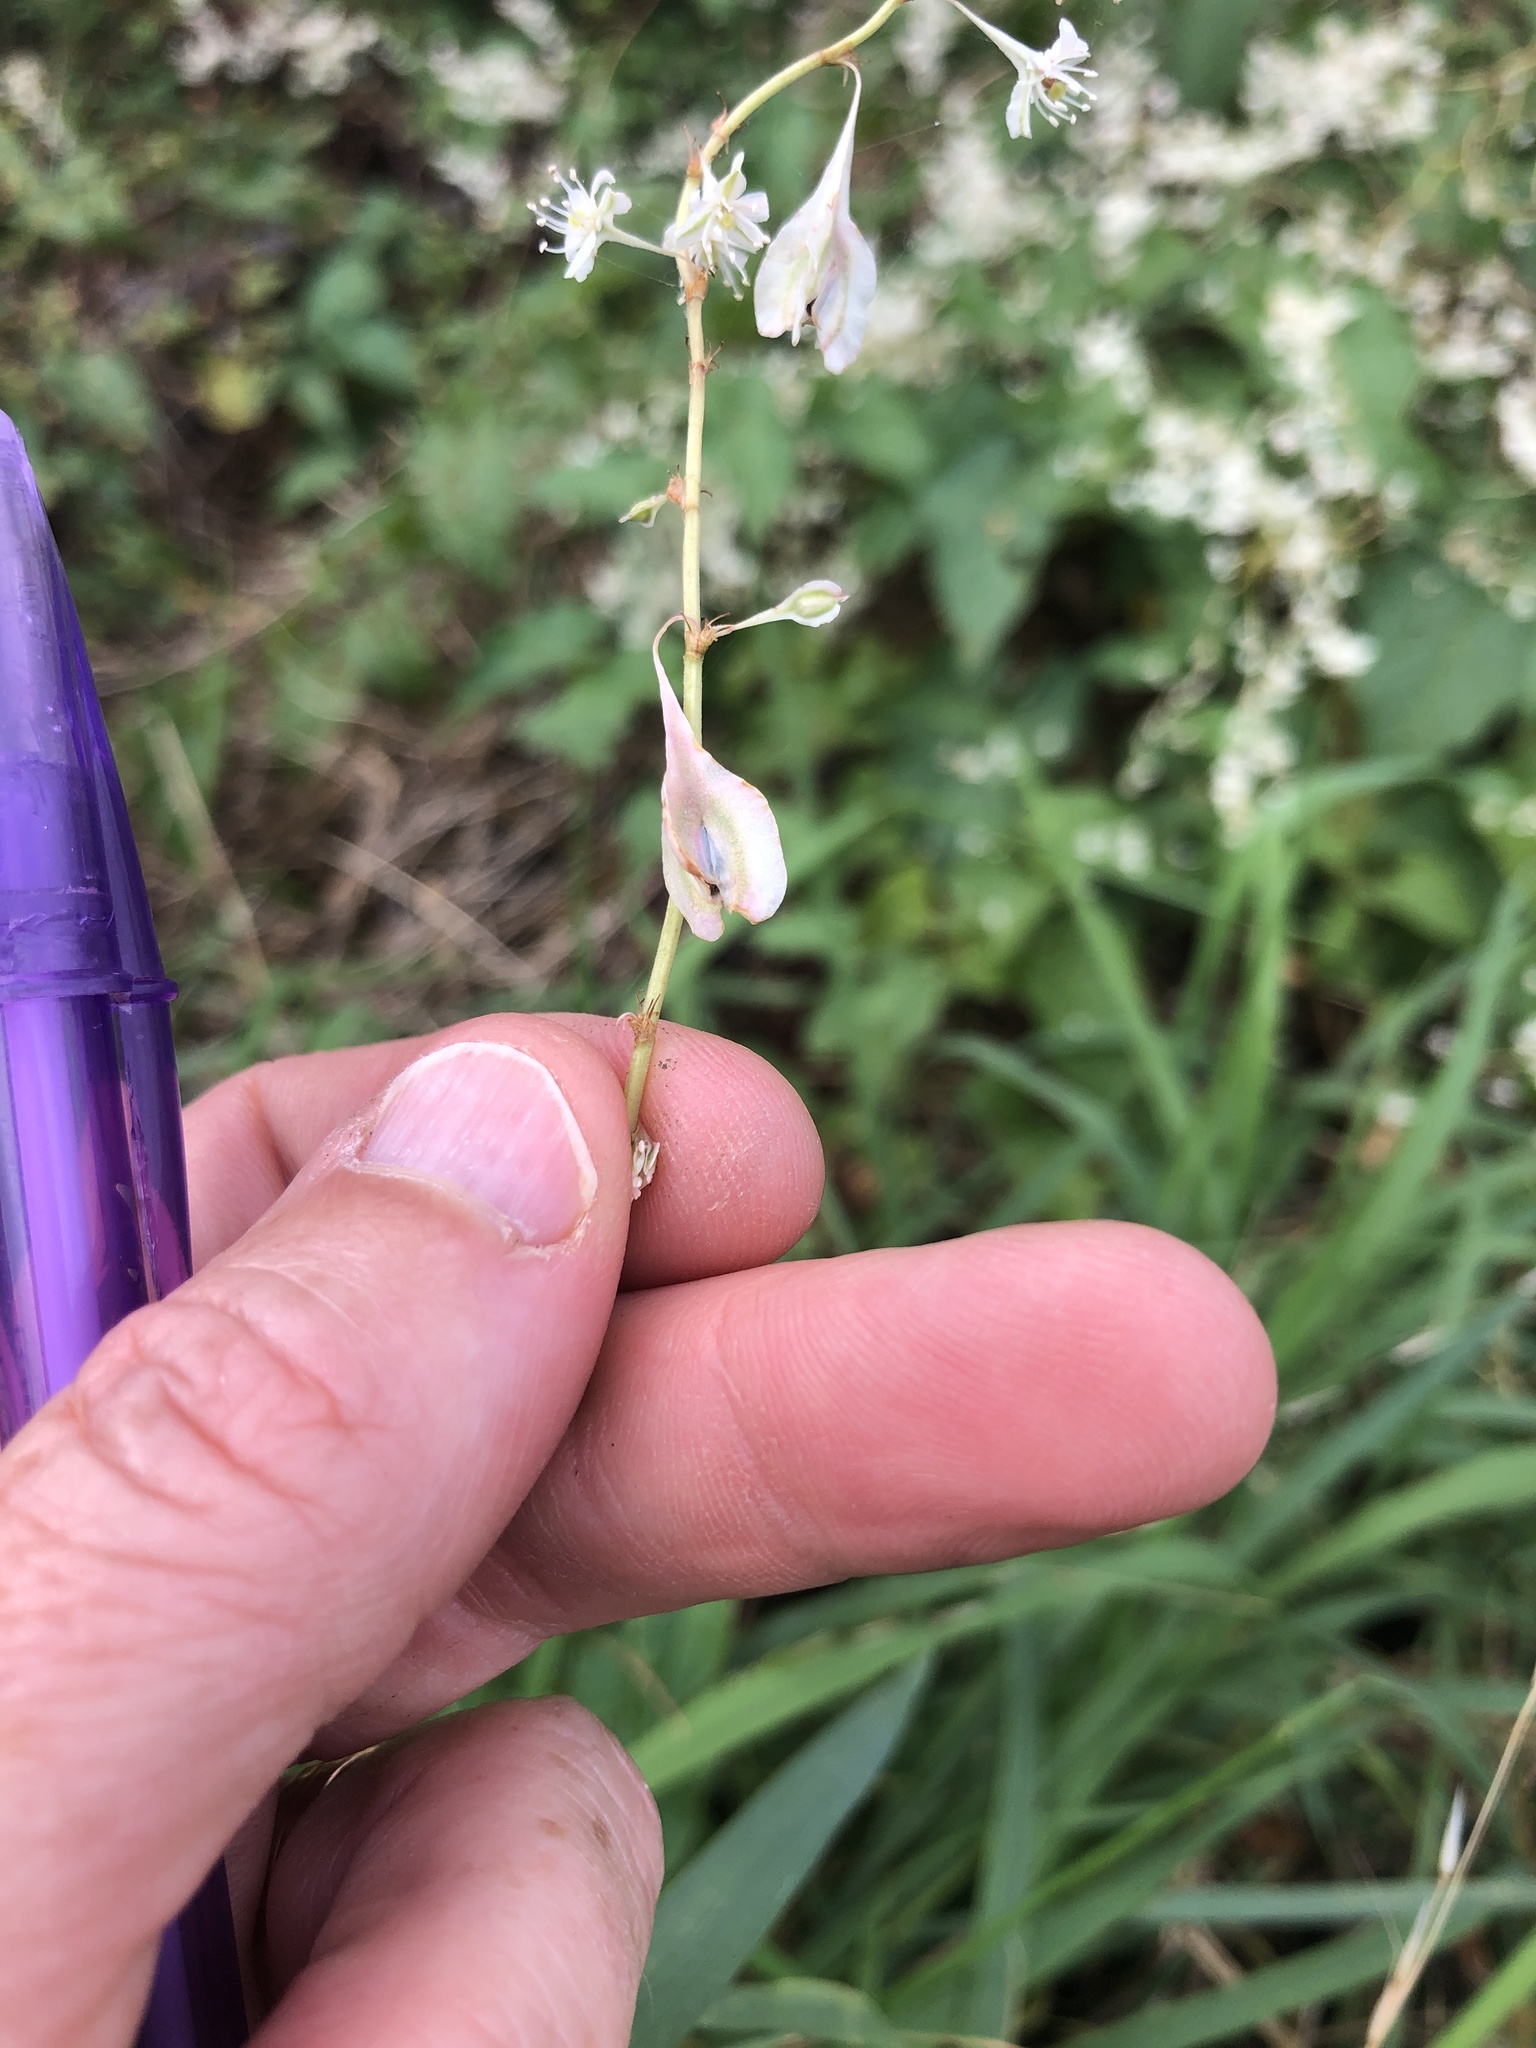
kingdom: Plantae
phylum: Tracheophyta
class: Magnoliopsida
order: Caryophyllales
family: Polygonaceae
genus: Fallopia
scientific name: Fallopia baldschuanica
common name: Russian-vine
